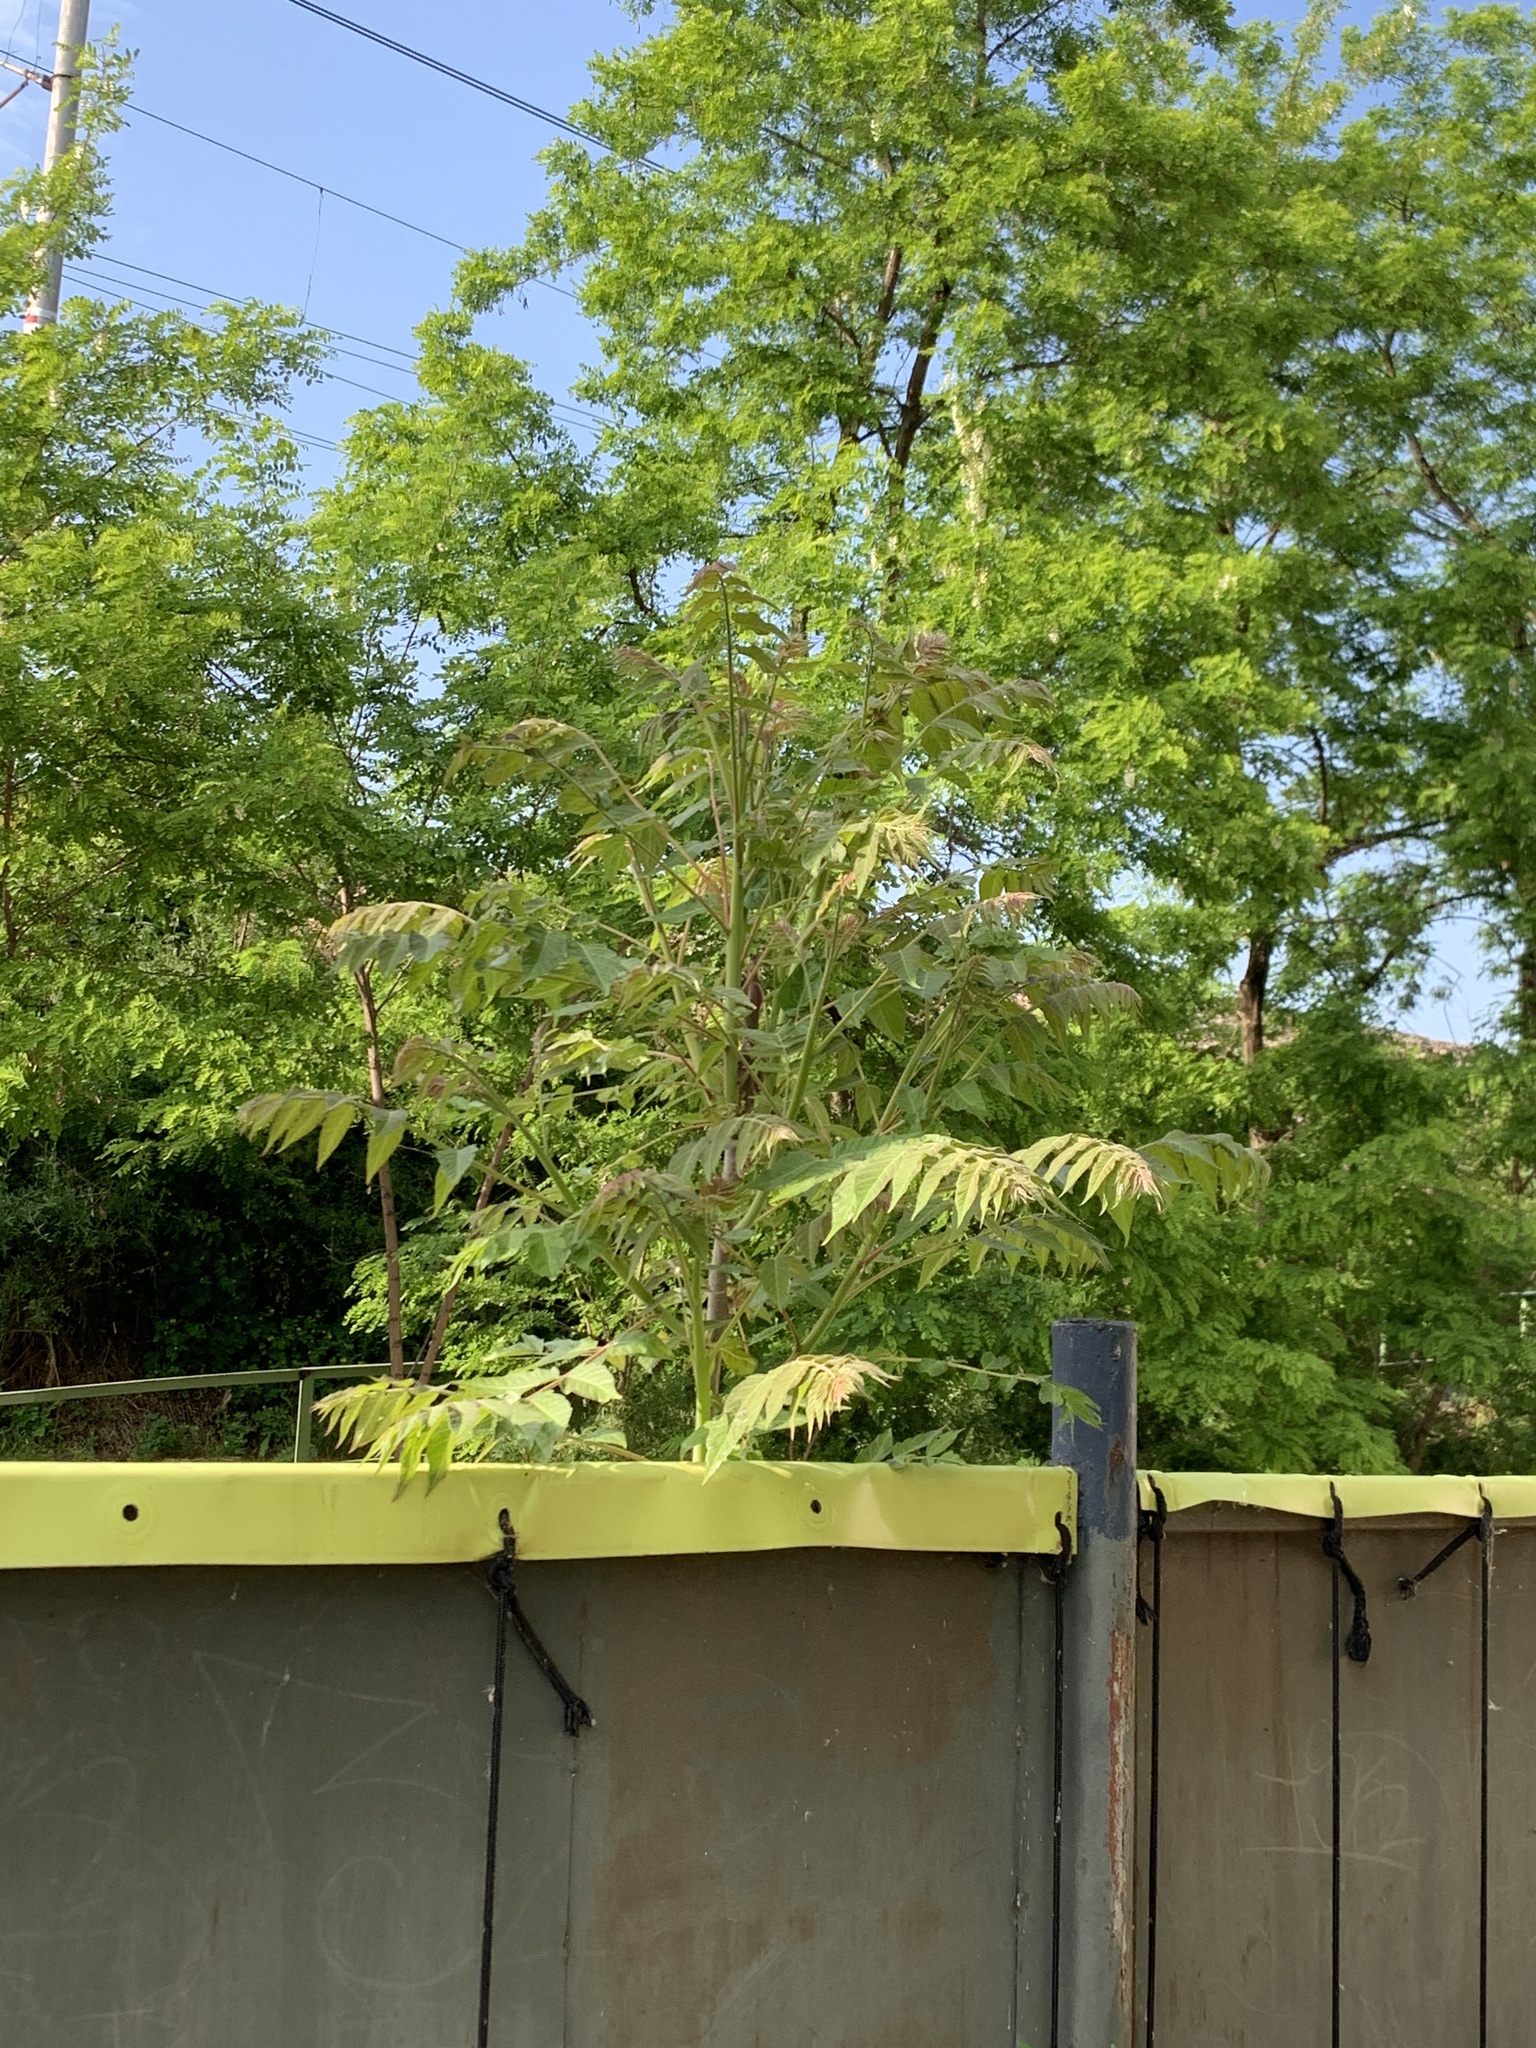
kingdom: Plantae
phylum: Tracheophyta
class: Magnoliopsida
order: Sapindales
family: Simaroubaceae
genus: Ailanthus
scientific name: Ailanthus altissima
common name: Tree-of-heaven
